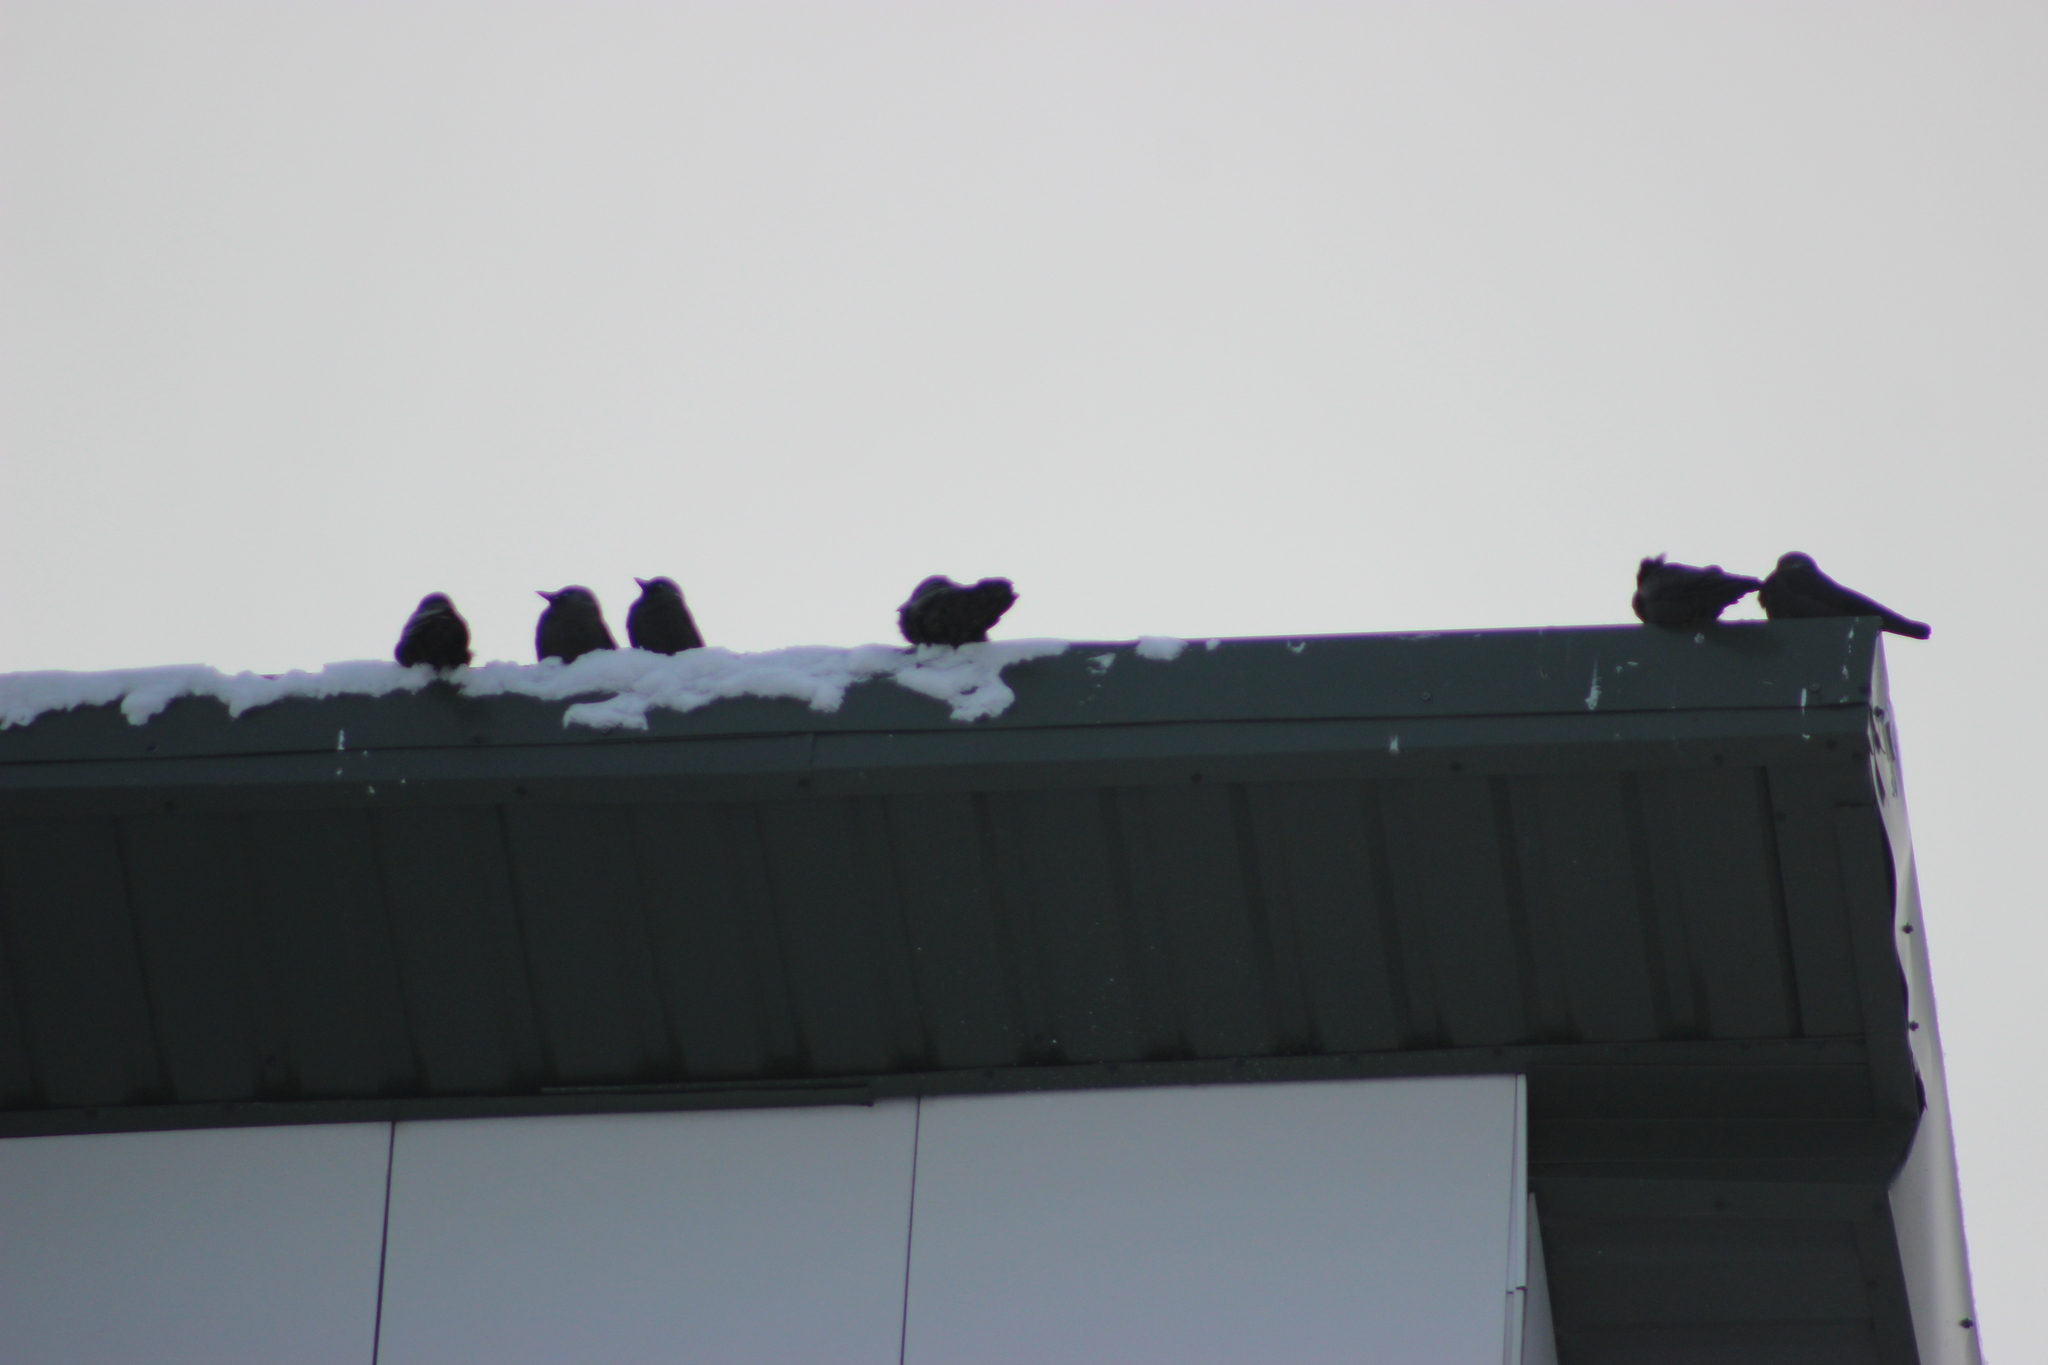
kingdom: Animalia
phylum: Chordata
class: Aves
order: Passeriformes
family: Corvidae
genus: Coloeus
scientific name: Coloeus monedula
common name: Western jackdaw
